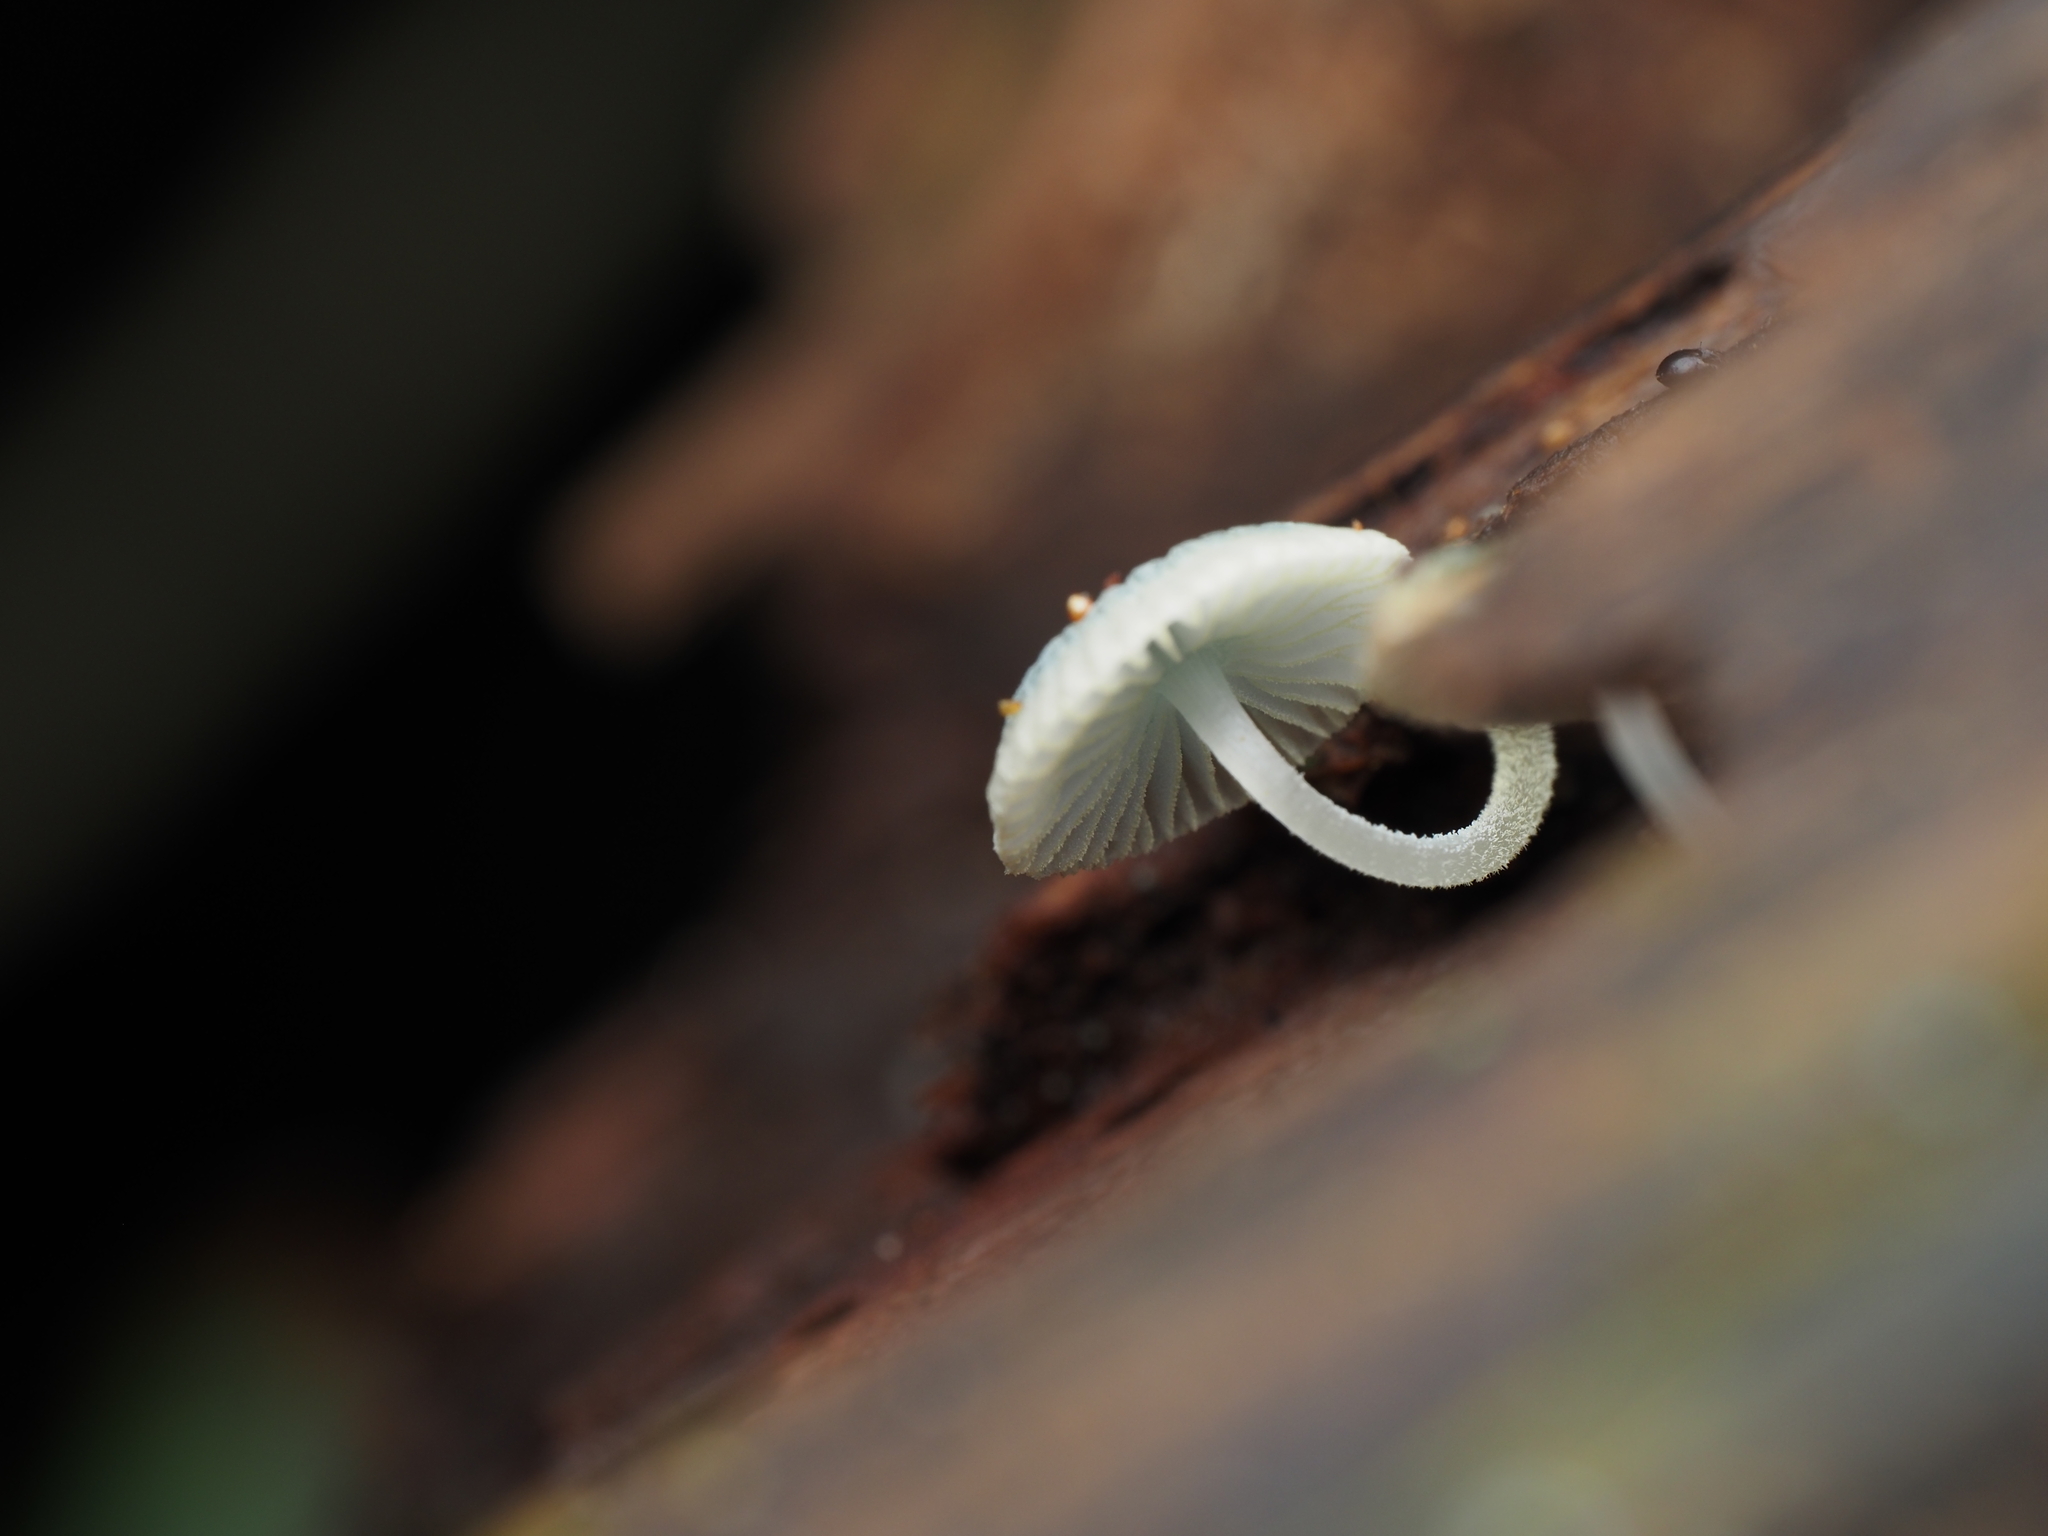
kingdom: Fungi
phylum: Basidiomycota
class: Agaricomycetes
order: Agaricales
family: Mycenaceae
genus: Mycena
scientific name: Mycena interrupta
